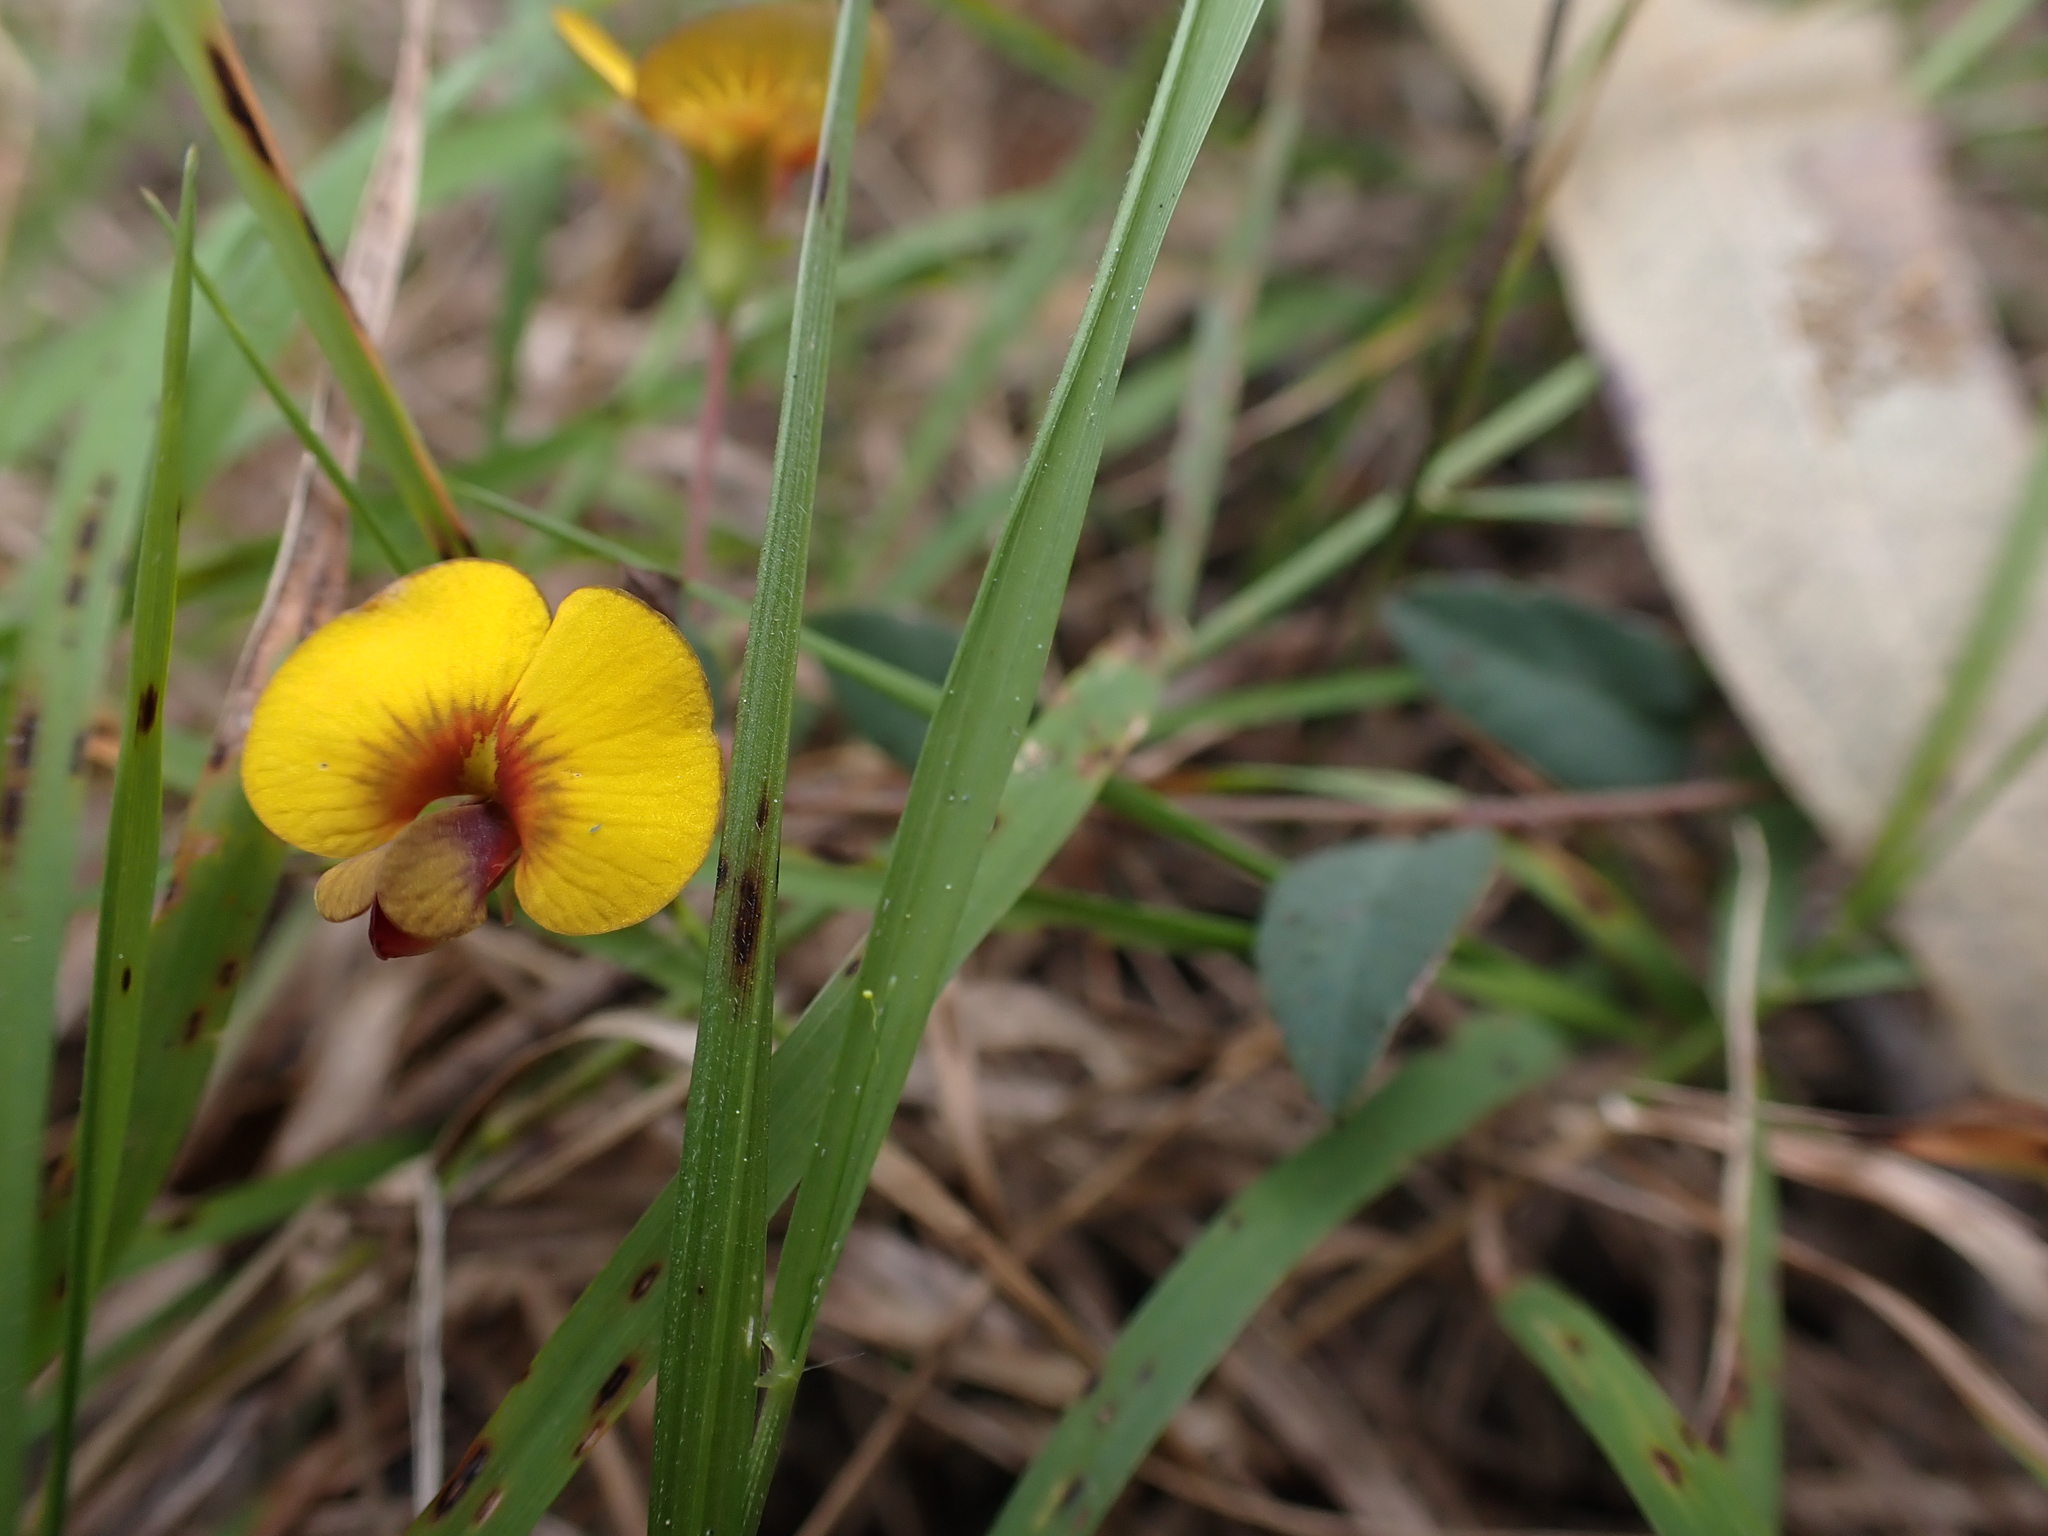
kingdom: Plantae
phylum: Tracheophyta
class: Magnoliopsida
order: Fabales
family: Fabaceae
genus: Bossiaea
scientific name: Bossiaea prostrata
